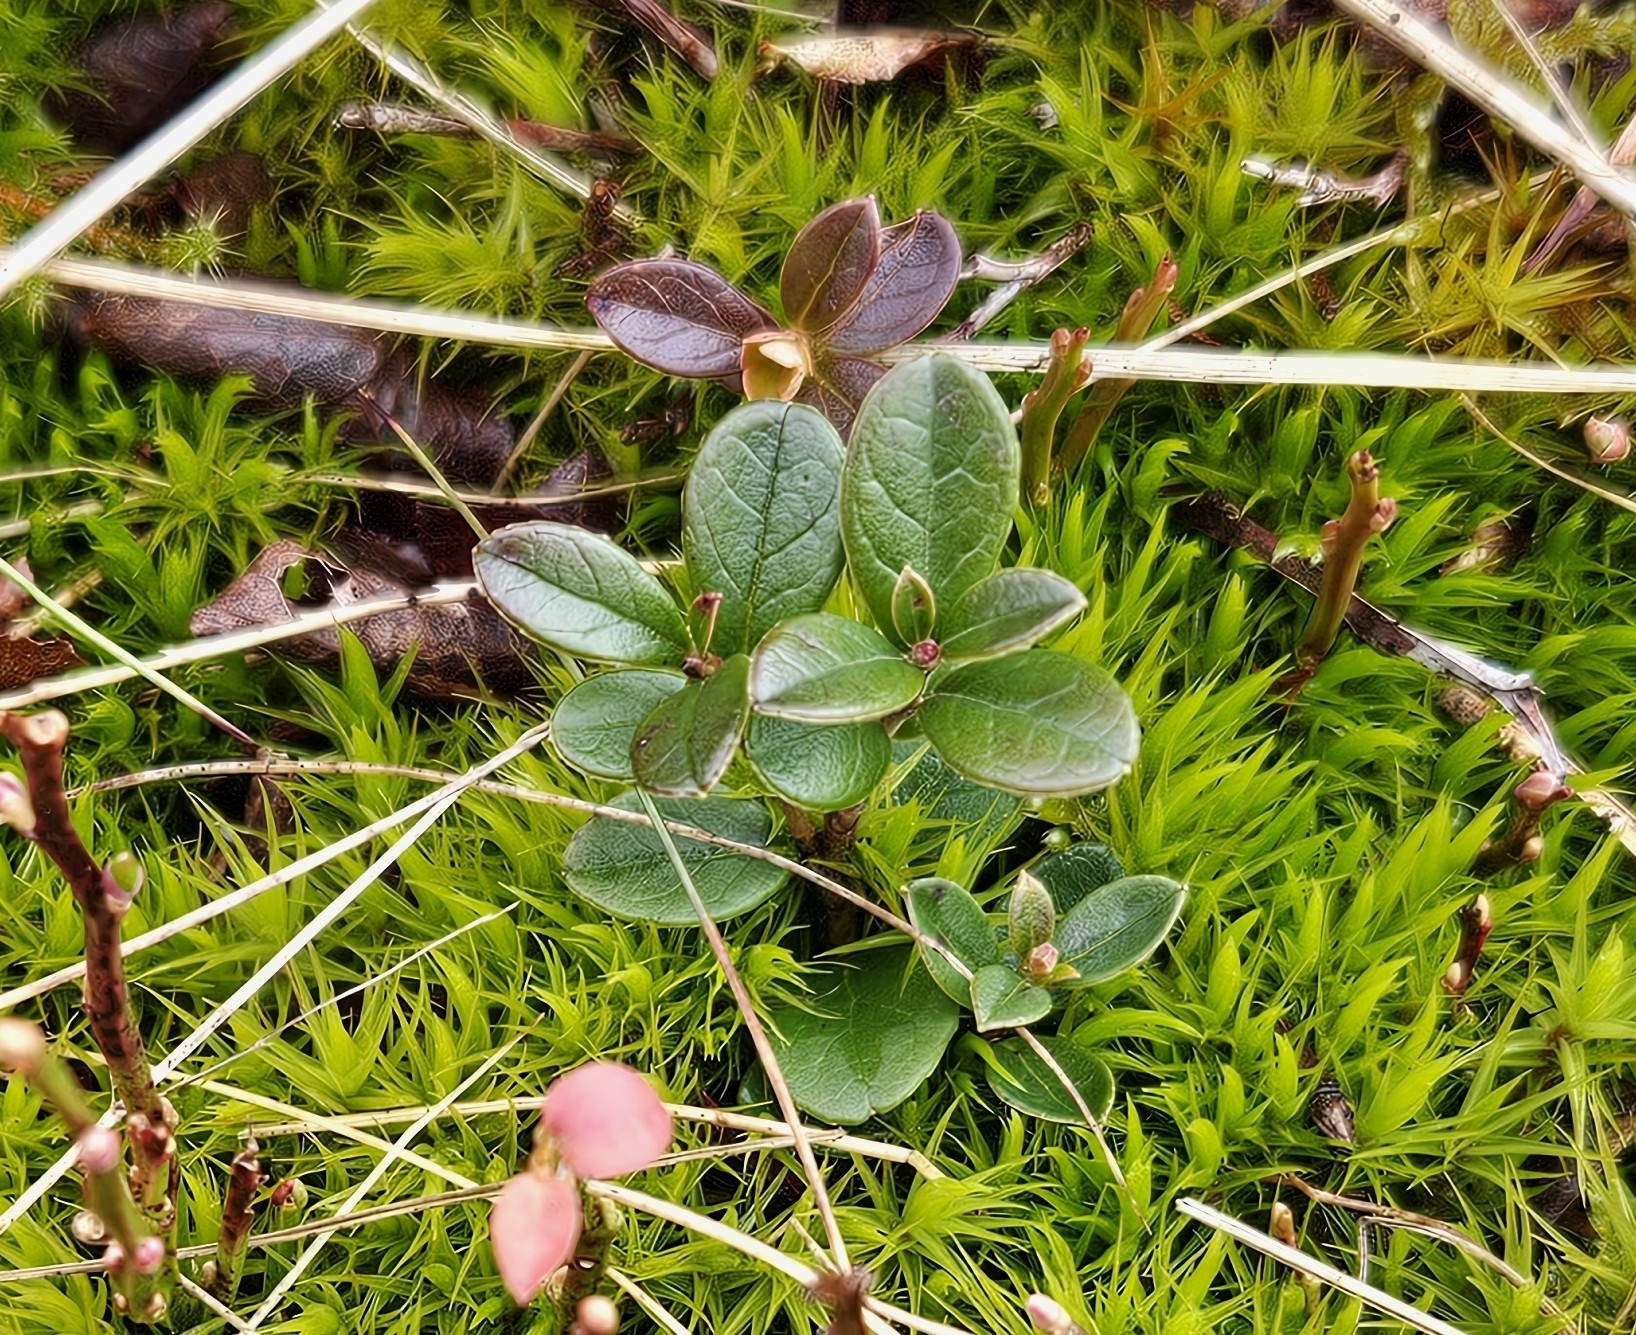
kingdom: Plantae
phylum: Tracheophyta
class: Magnoliopsida
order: Ericales
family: Ericaceae
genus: Vaccinium
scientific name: Vaccinium vitis-idaea
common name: Cowberry
